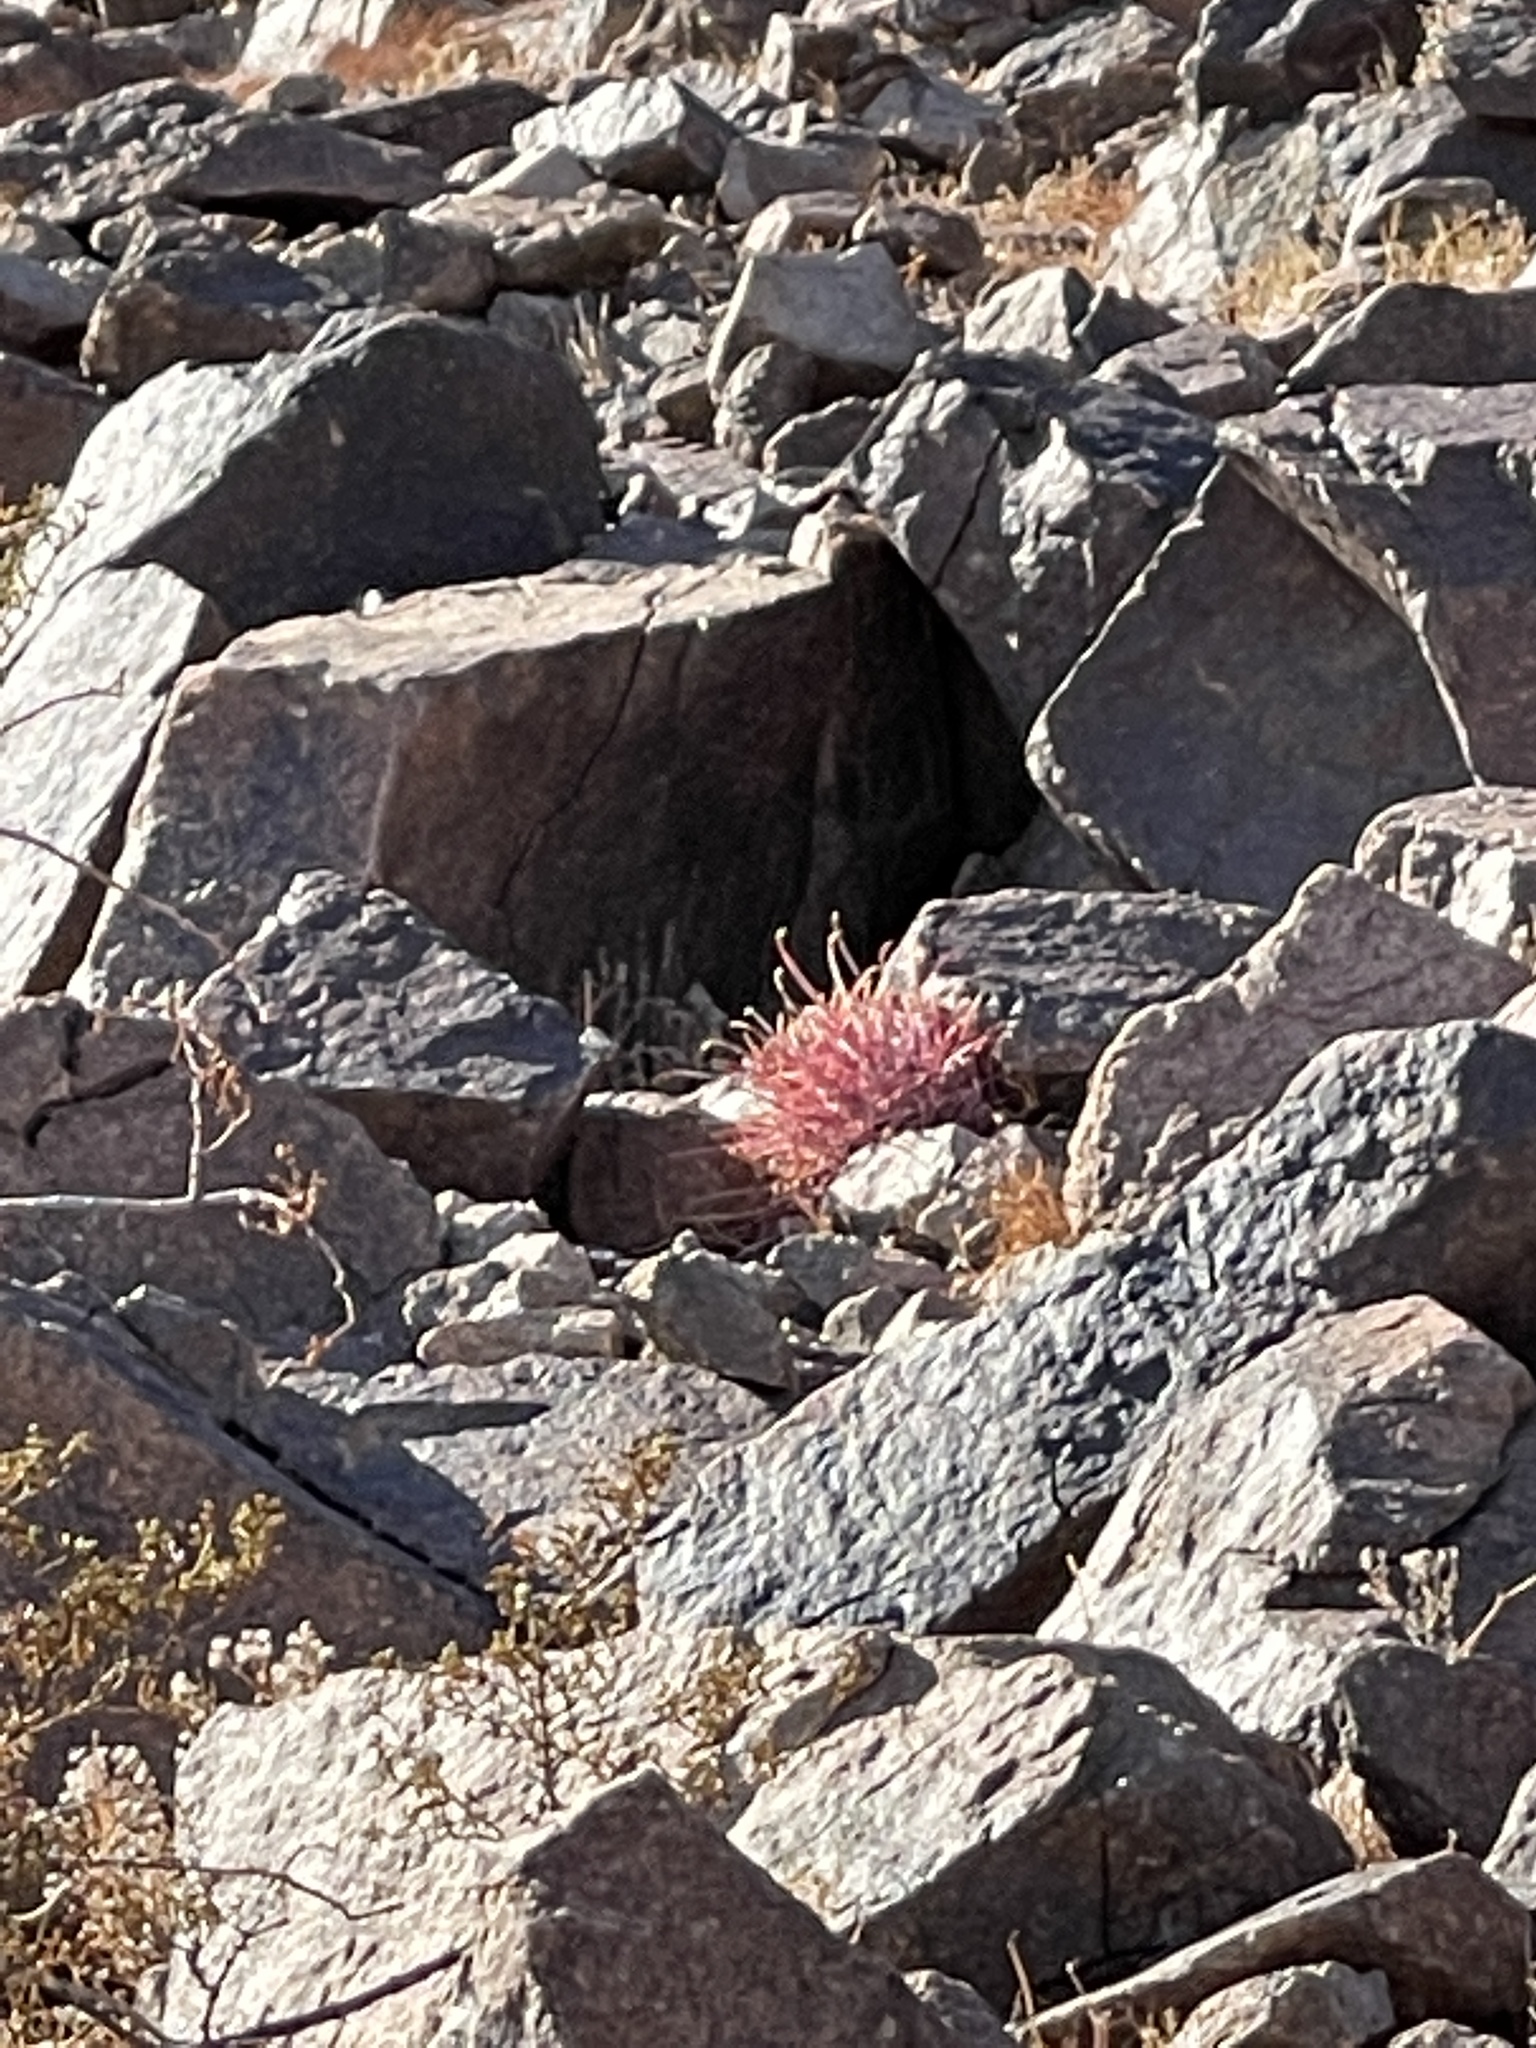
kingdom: Plantae
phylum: Tracheophyta
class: Magnoliopsida
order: Caryophyllales
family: Cactaceae
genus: Ferocactus
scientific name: Ferocactus cylindraceus
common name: California barrel cactus
